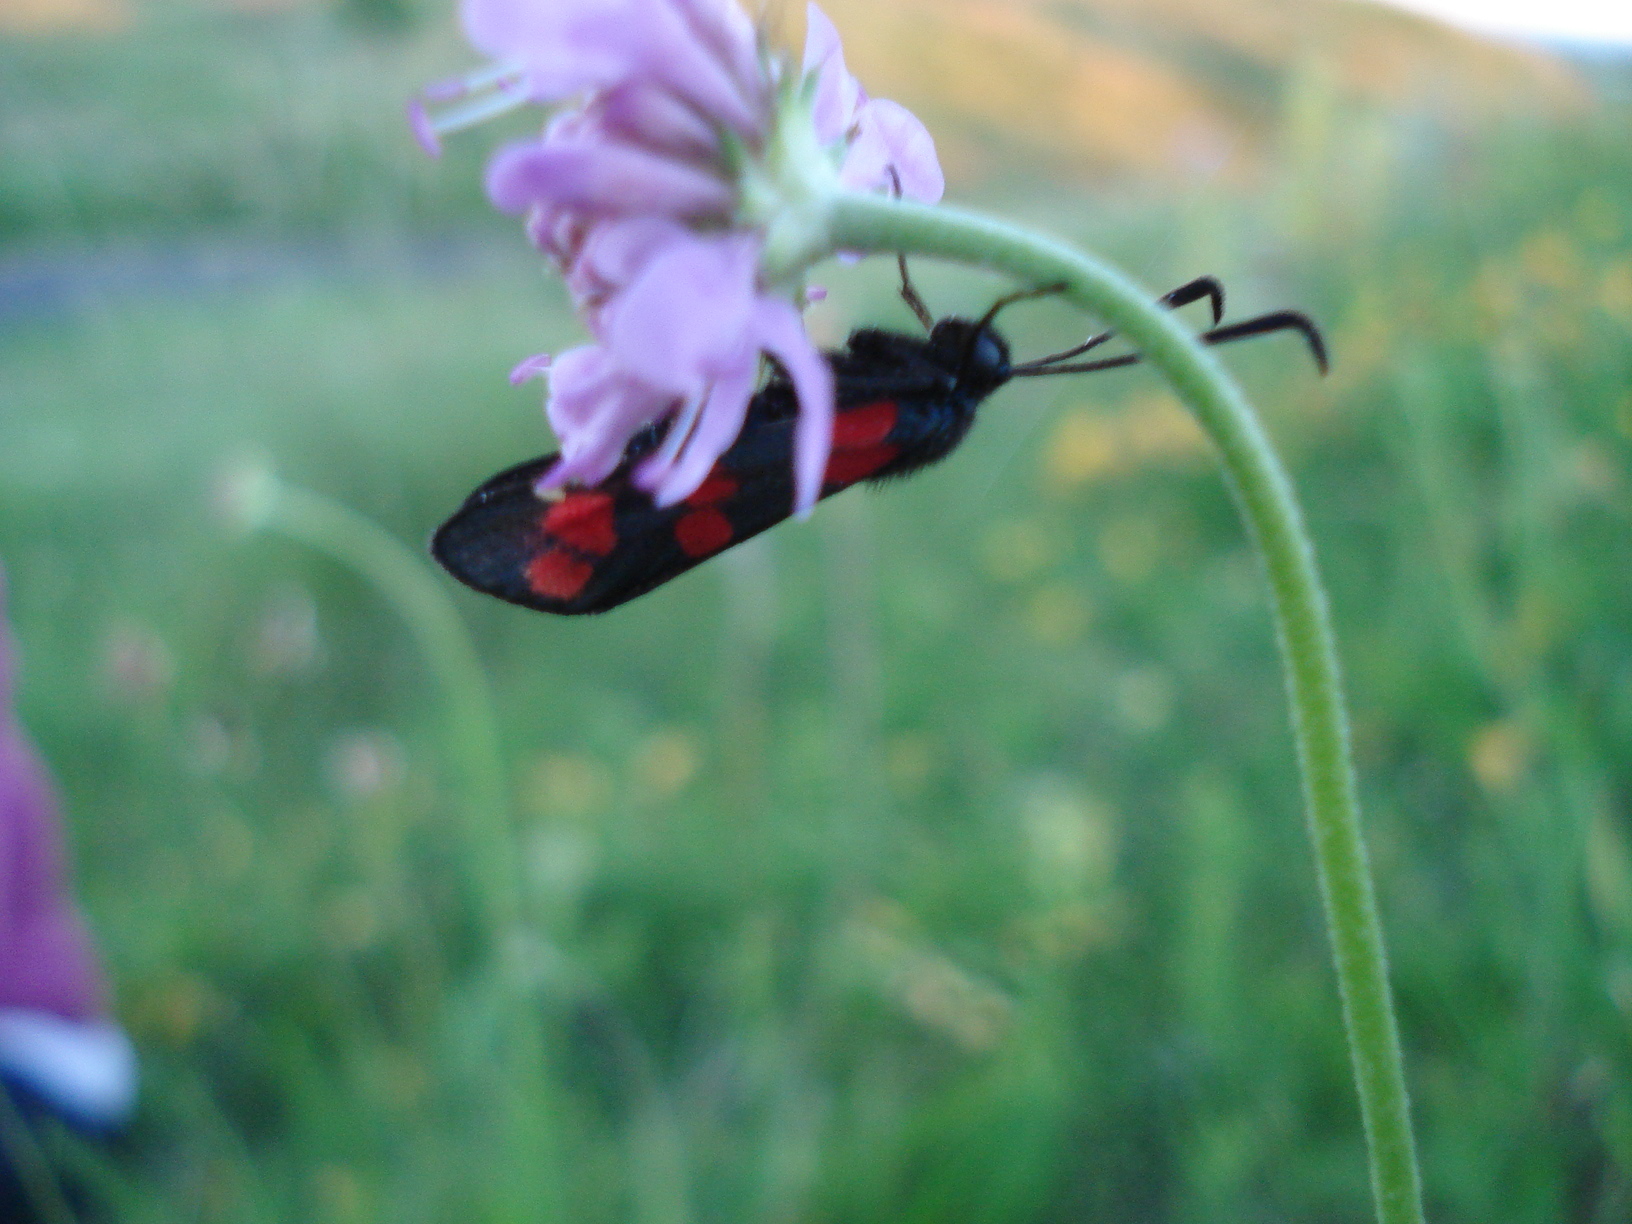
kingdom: Animalia
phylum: Arthropoda
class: Insecta
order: Lepidoptera
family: Zygaenidae
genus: Zygaena
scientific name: Zygaena filipendulae
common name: Six-spot burnet
